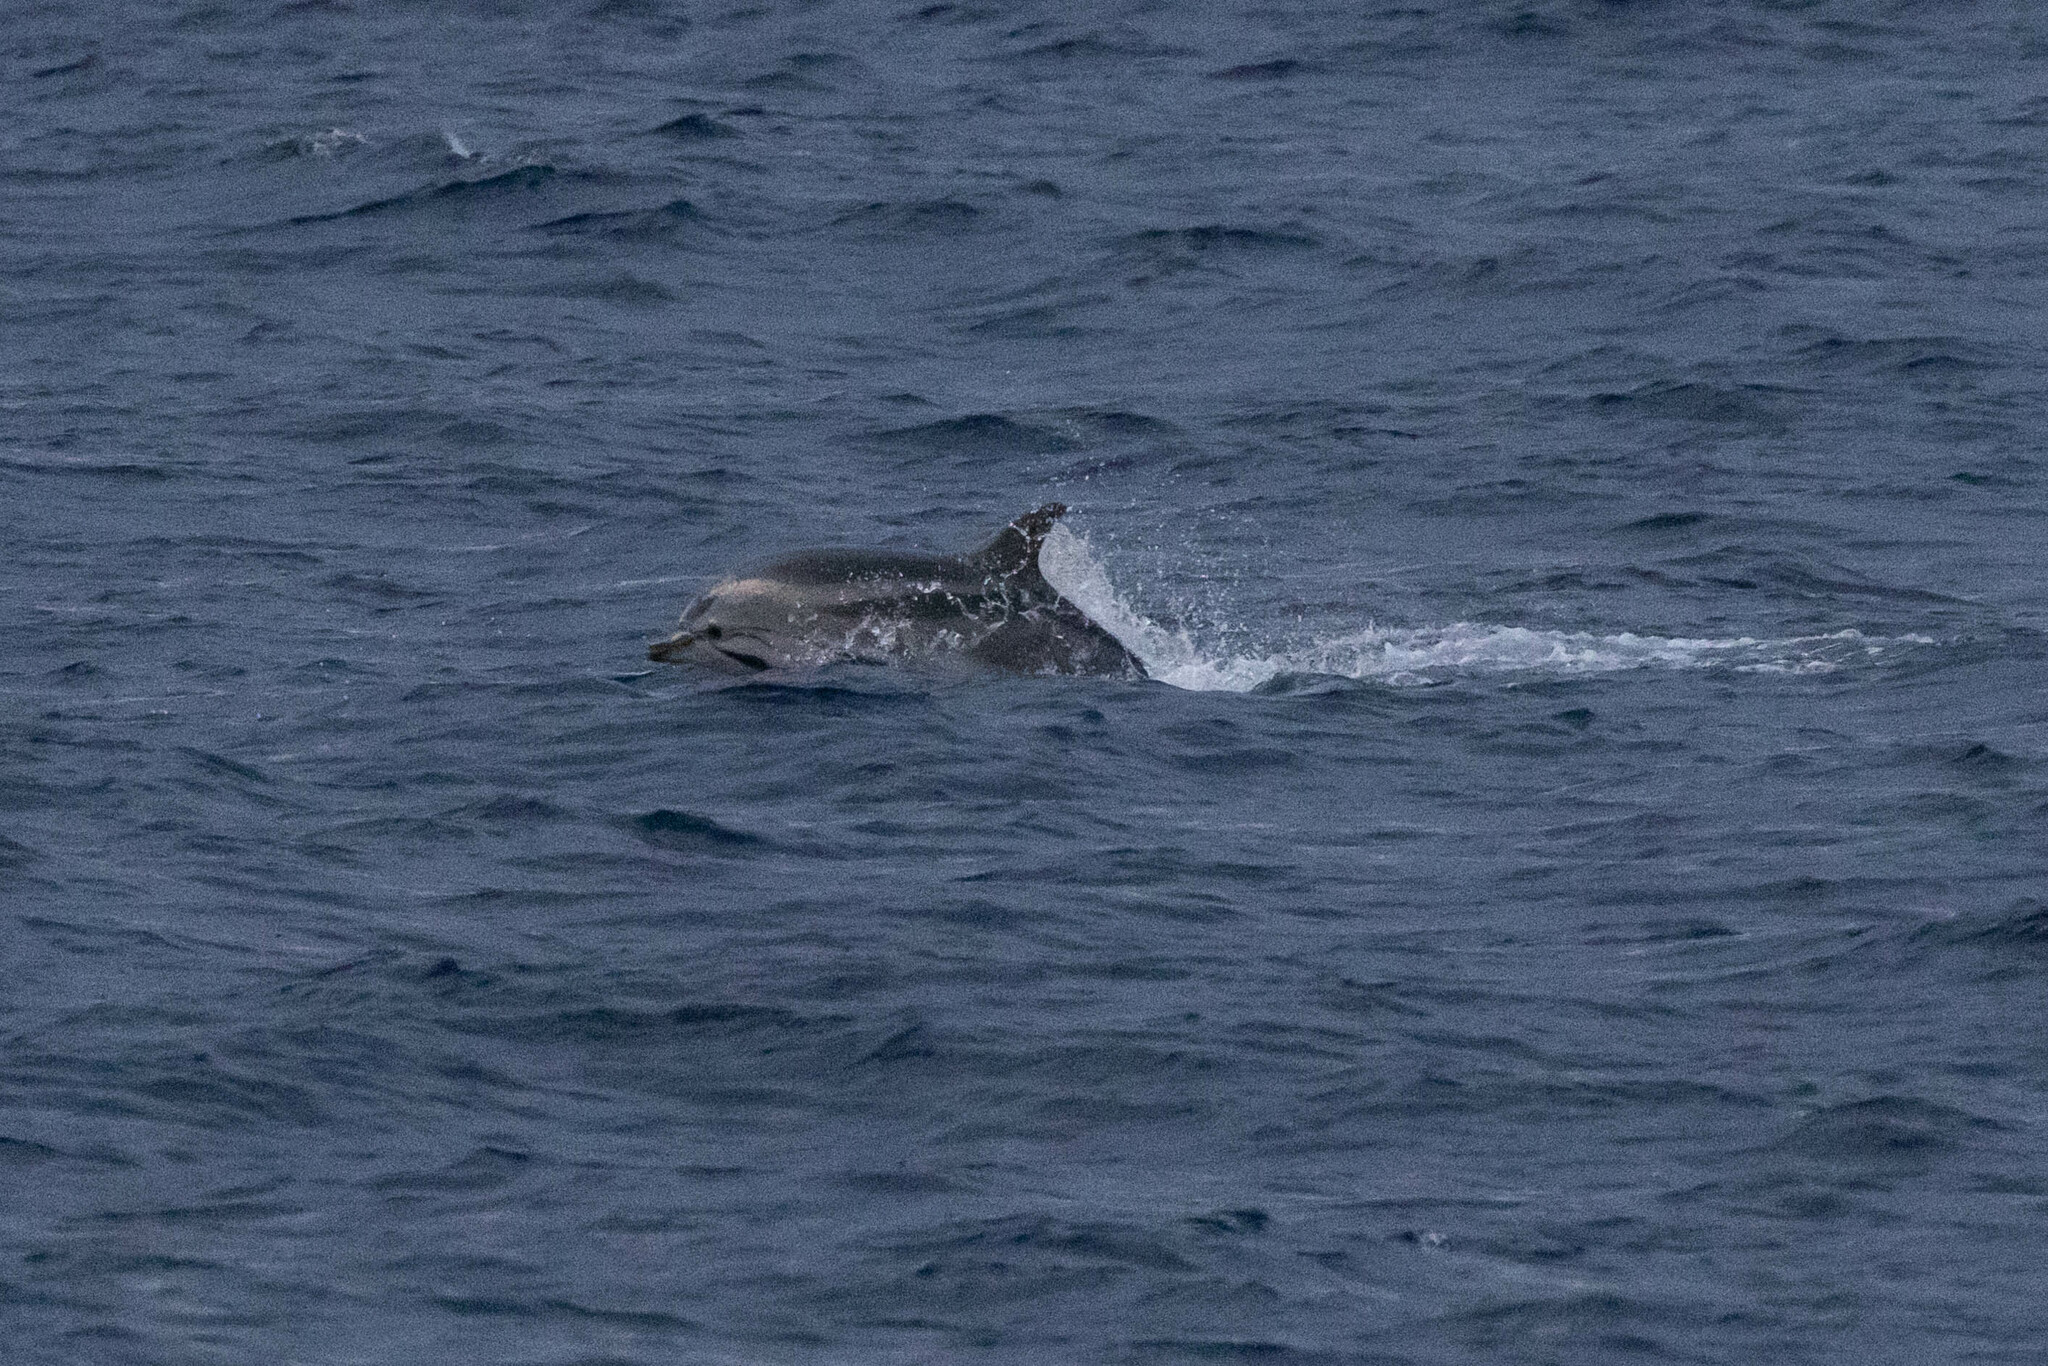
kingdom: Animalia
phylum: Chordata
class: Mammalia
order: Cetacea
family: Delphinidae
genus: Stenella
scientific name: Stenella coeruleoalba
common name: Striped dolphin
